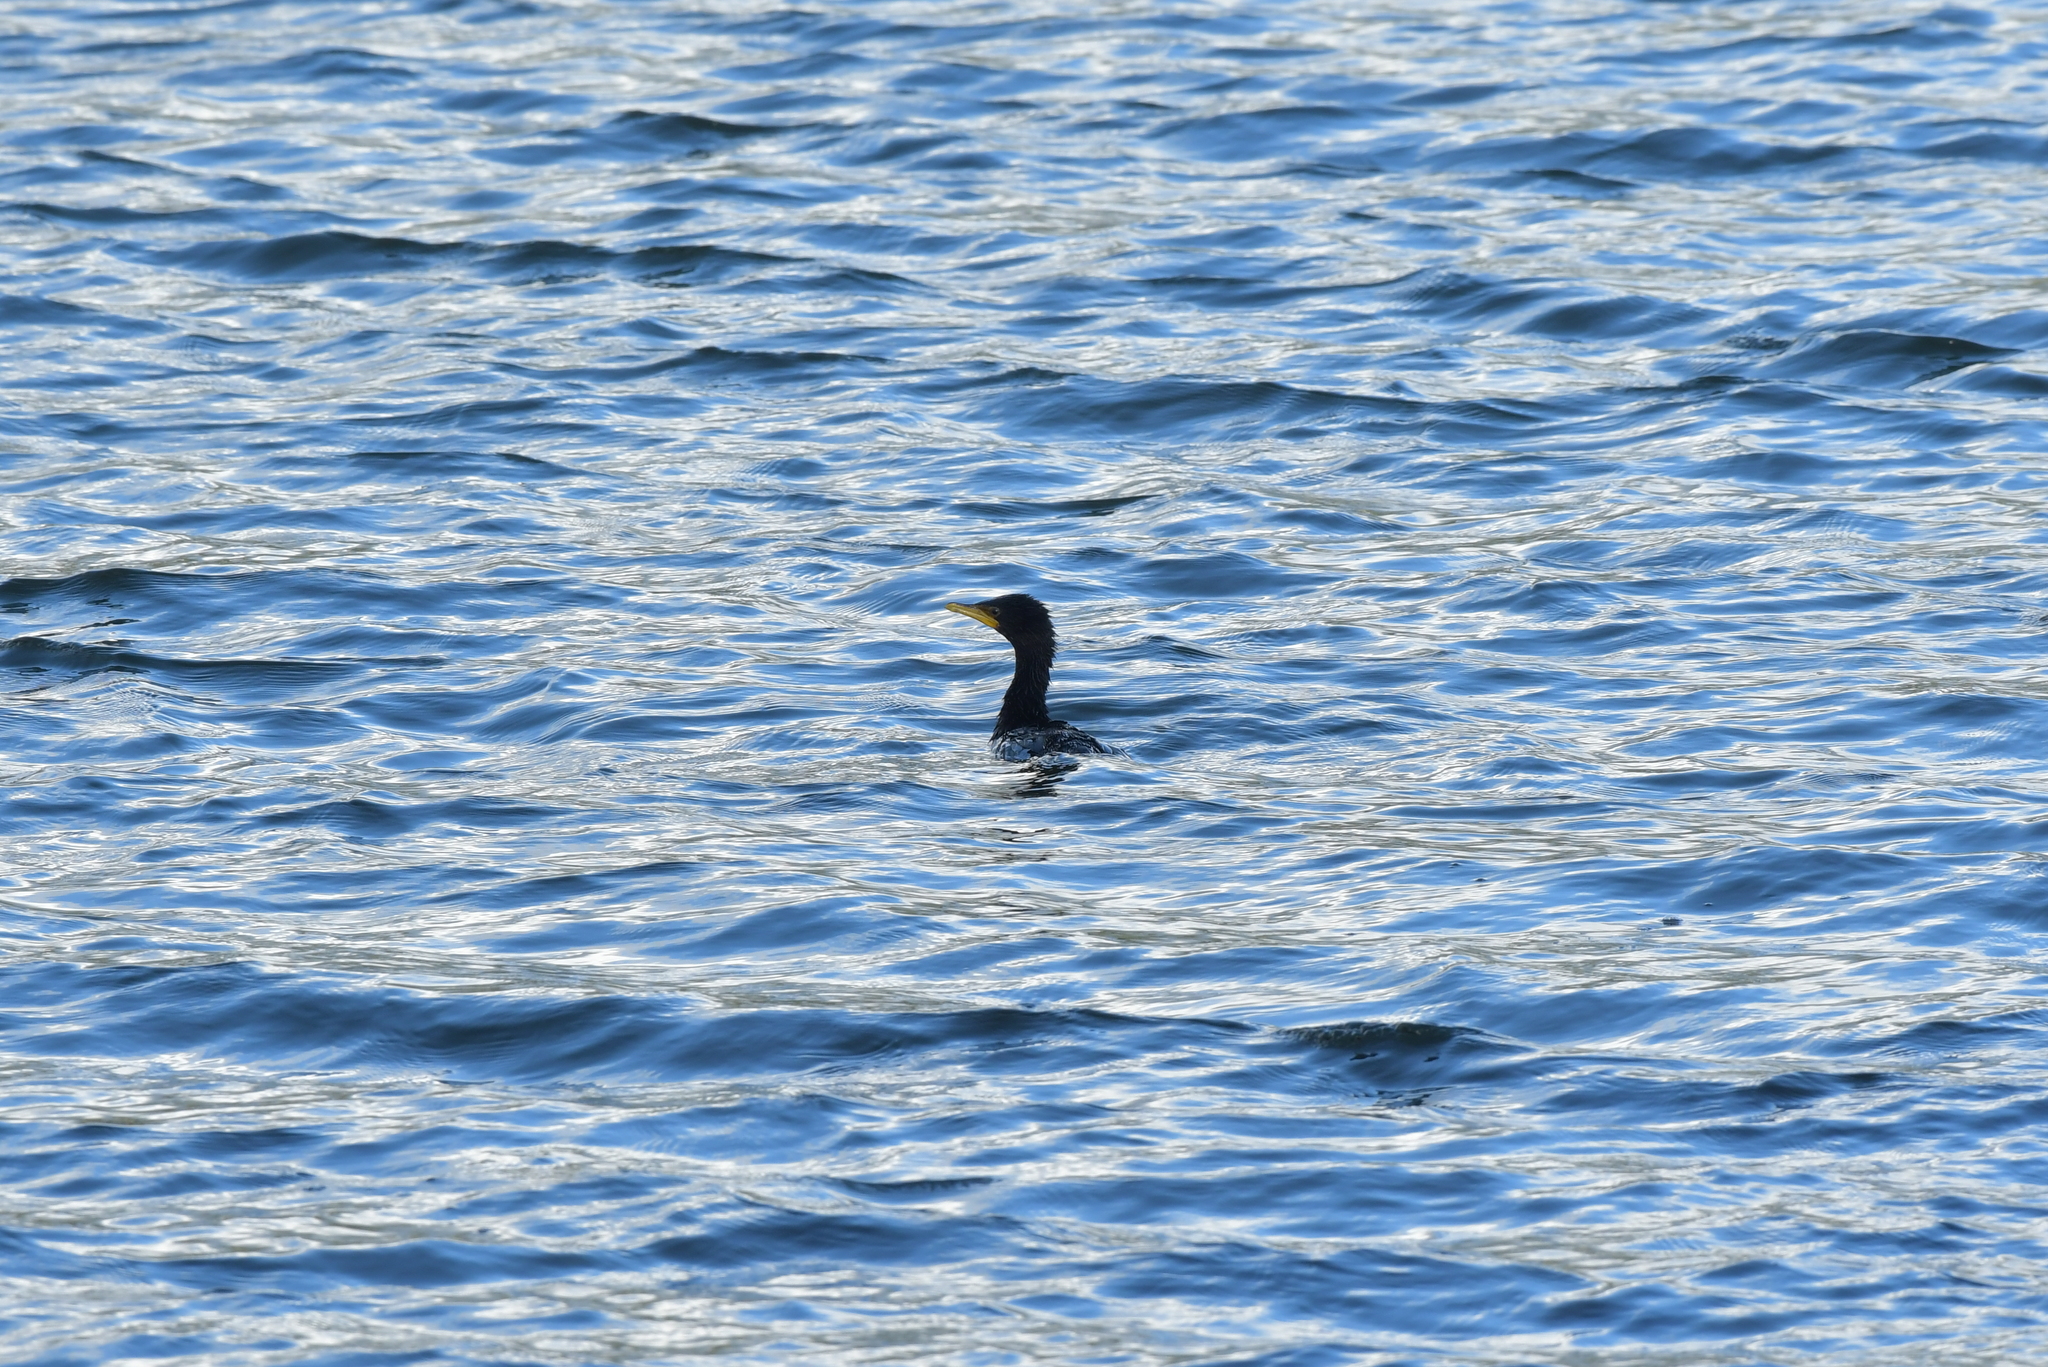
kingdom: Animalia
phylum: Chordata
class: Aves
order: Suliformes
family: Phalacrocoracidae
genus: Microcarbo
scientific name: Microcarbo melanoleucos
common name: Little pied cormorant
